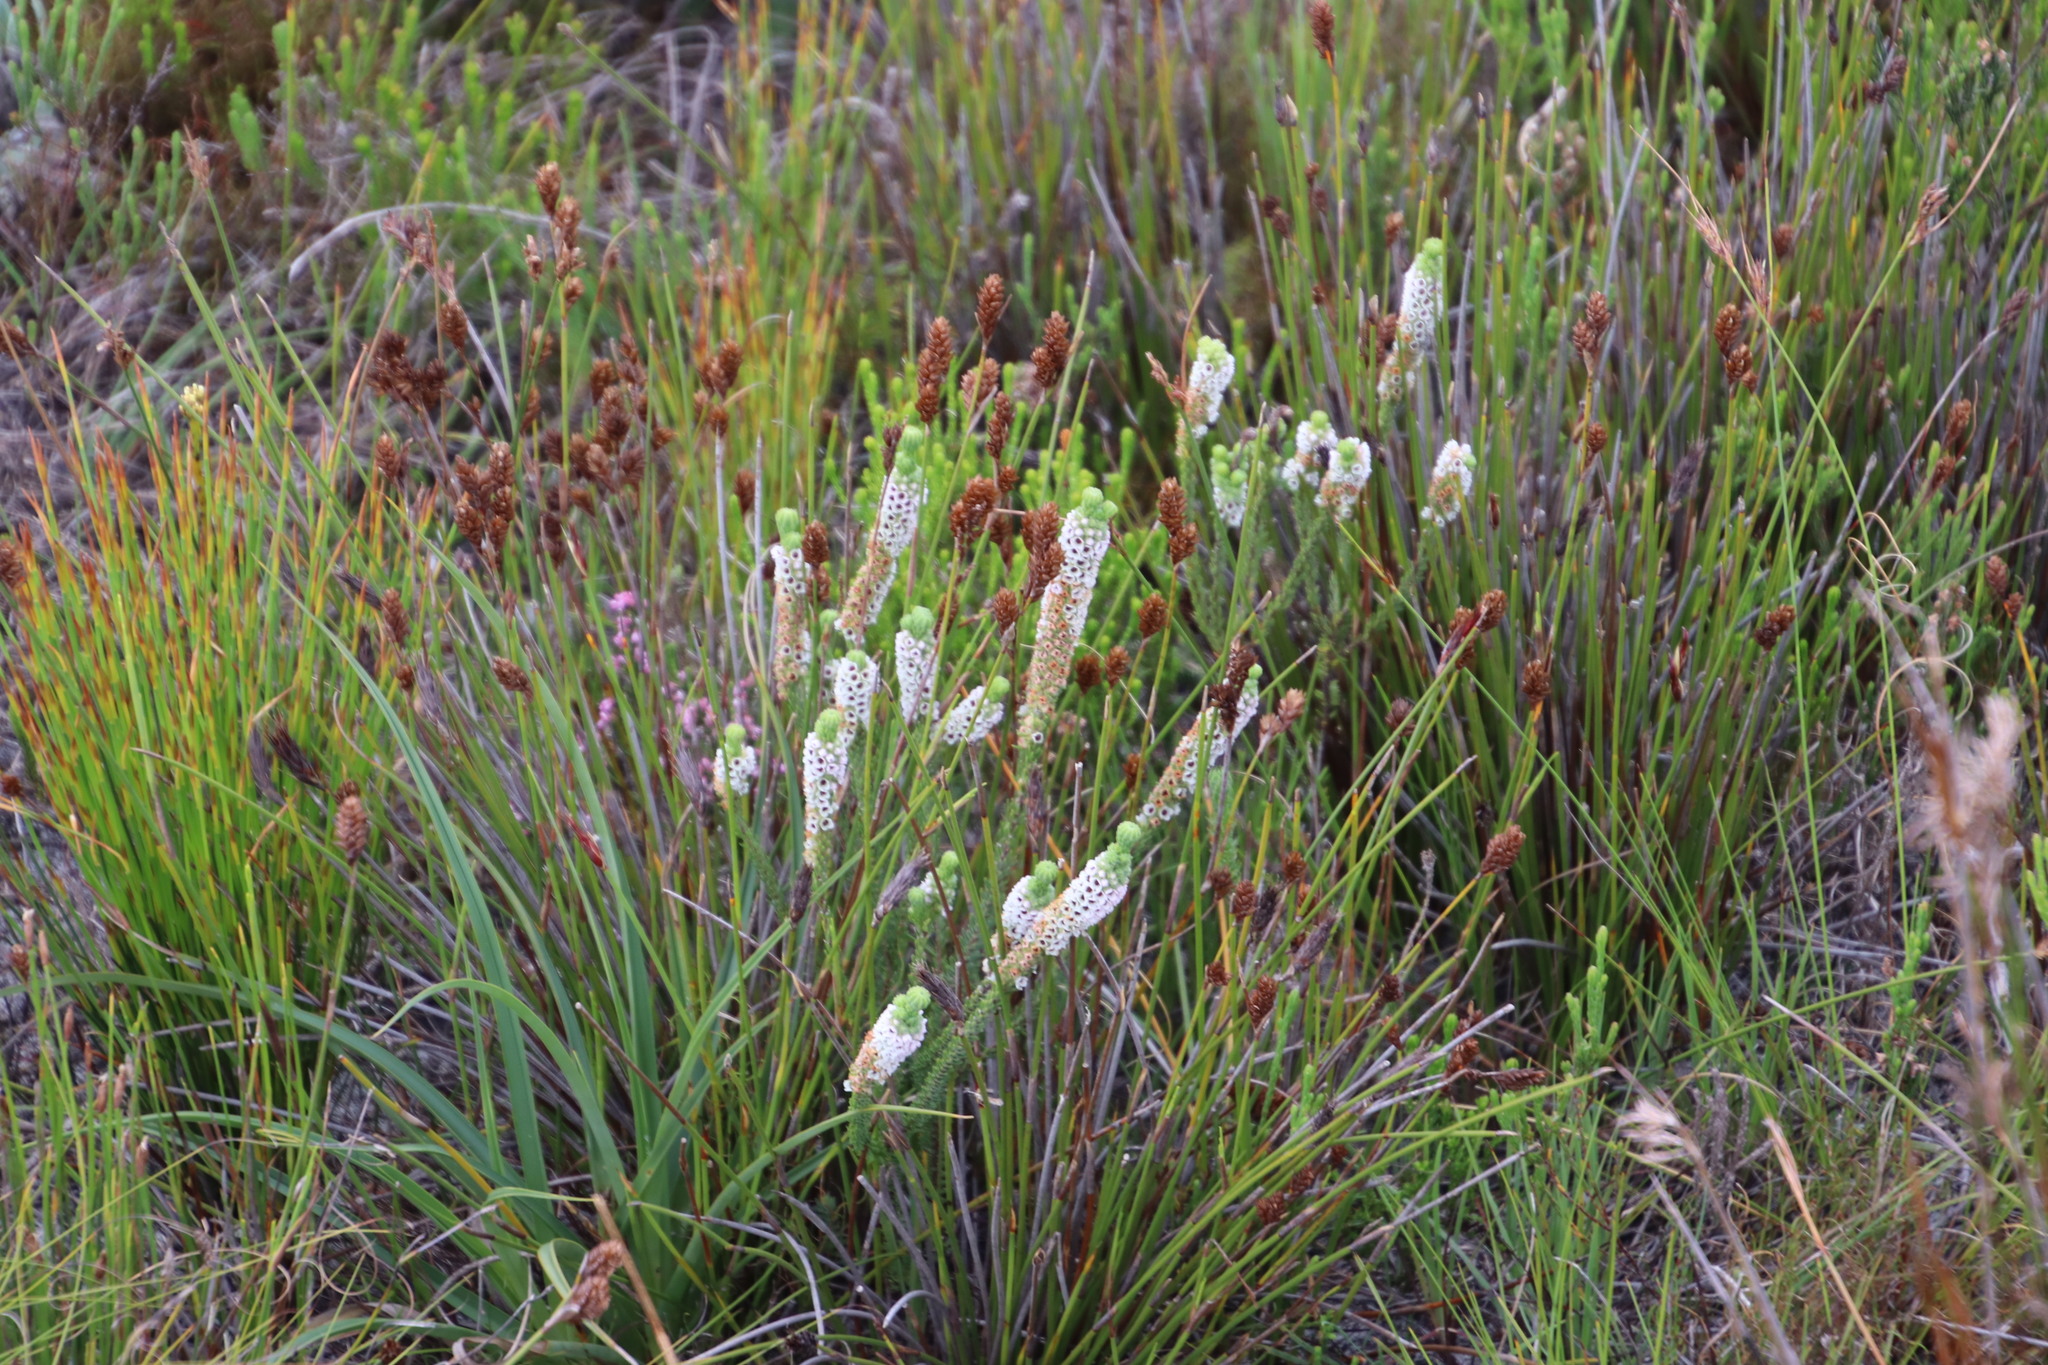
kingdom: Plantae
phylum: Tracheophyta
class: Magnoliopsida
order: Ericales
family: Ericaceae
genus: Erica
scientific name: Erica pyxidiflora
